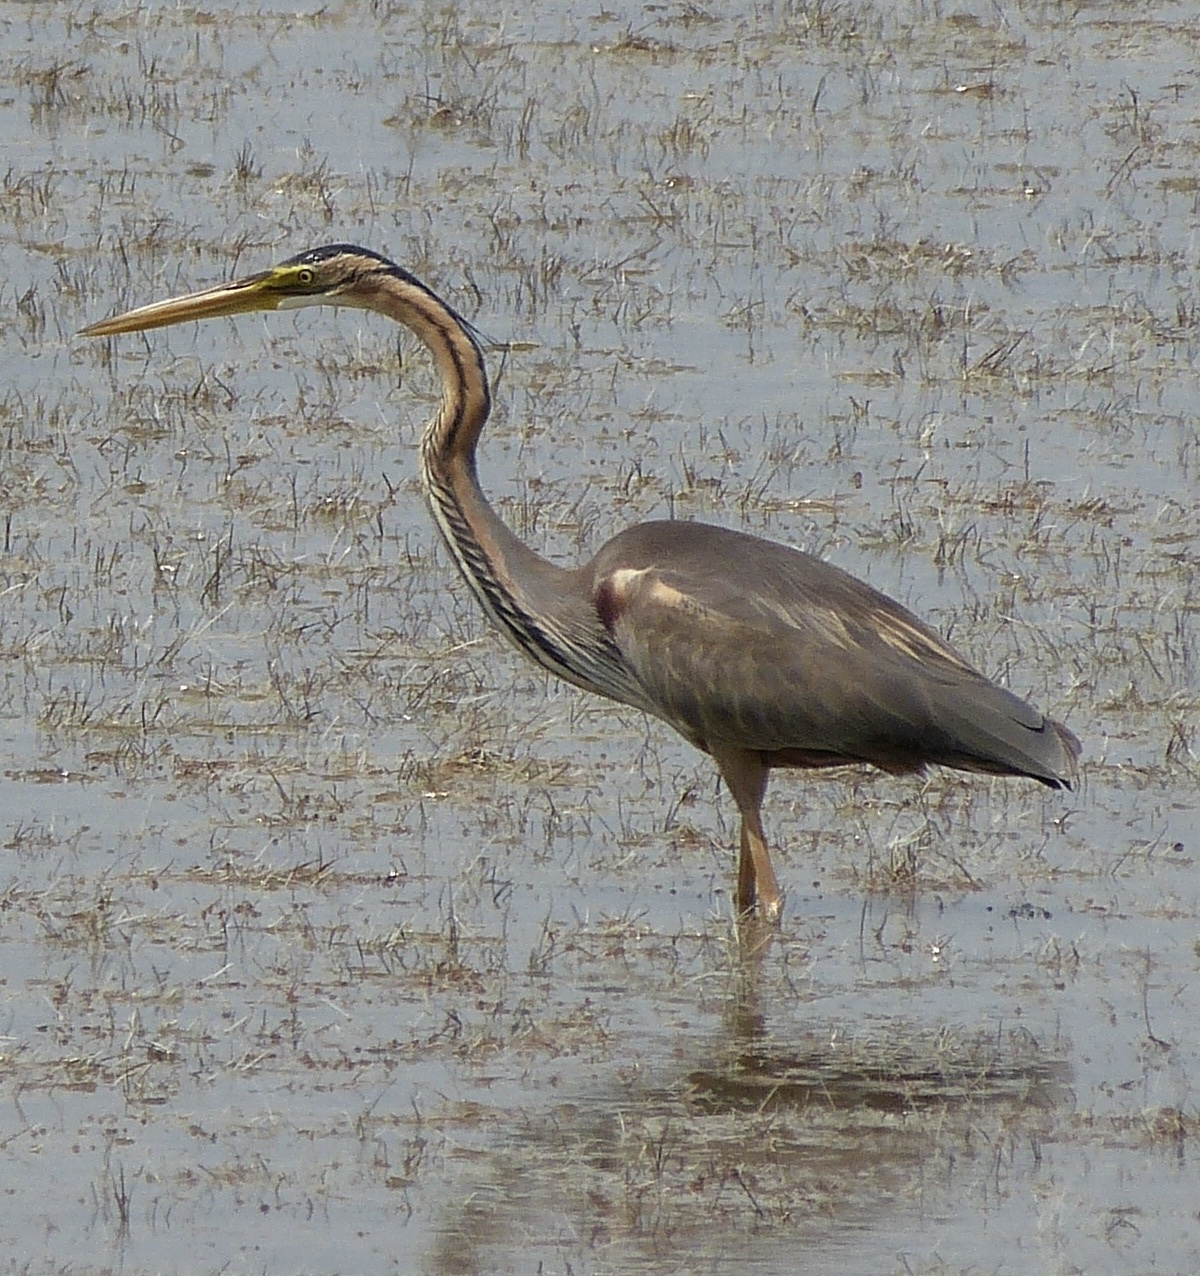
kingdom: Animalia
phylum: Chordata
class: Aves
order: Pelecaniformes
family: Ardeidae
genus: Ardea
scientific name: Ardea purpurea
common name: Purple heron
